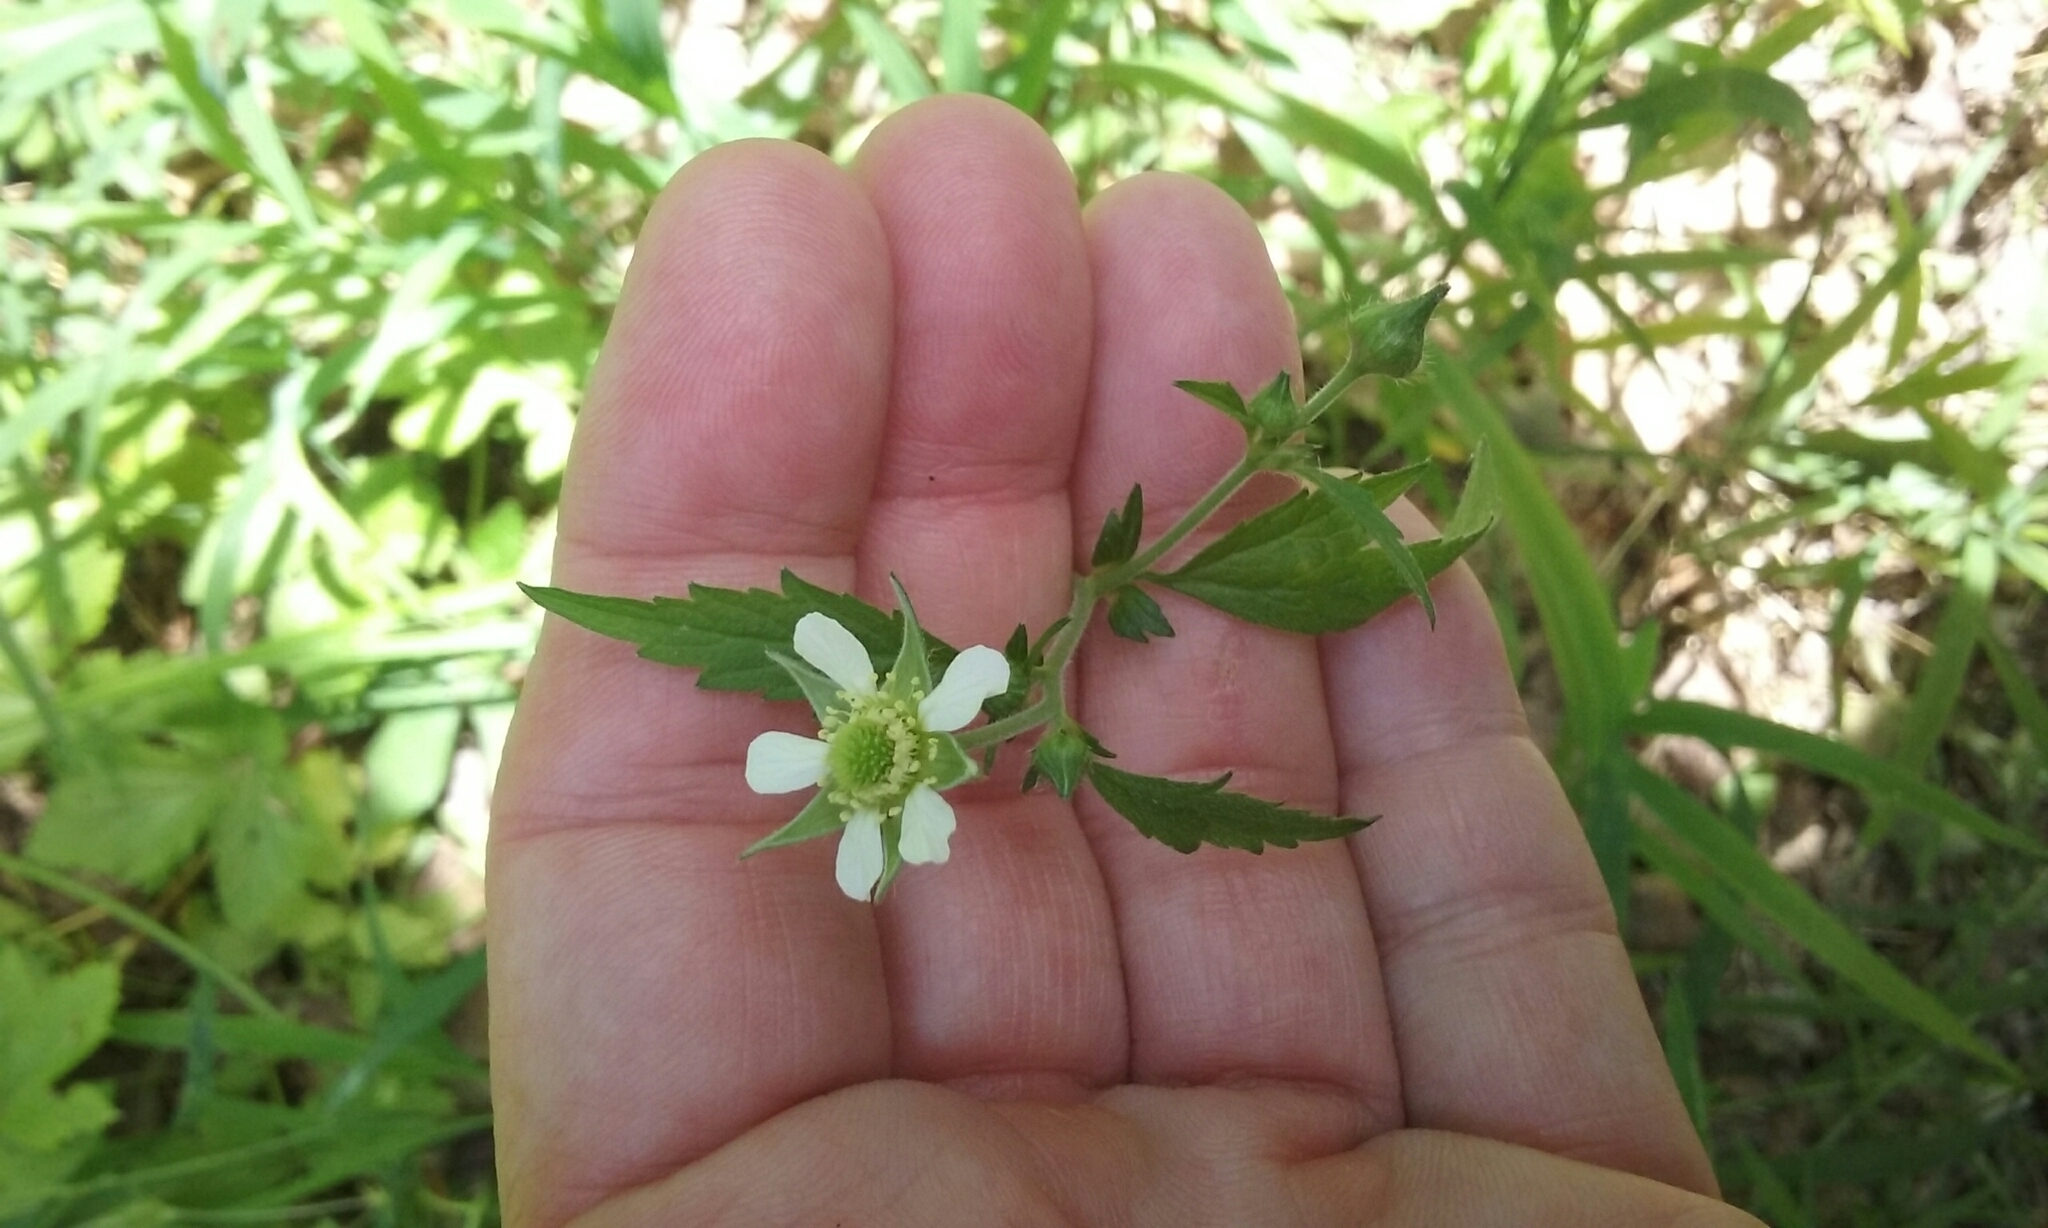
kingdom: Plantae
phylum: Tracheophyta
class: Magnoliopsida
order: Rosales
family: Rosaceae
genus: Geum
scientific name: Geum canadense
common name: White avens
